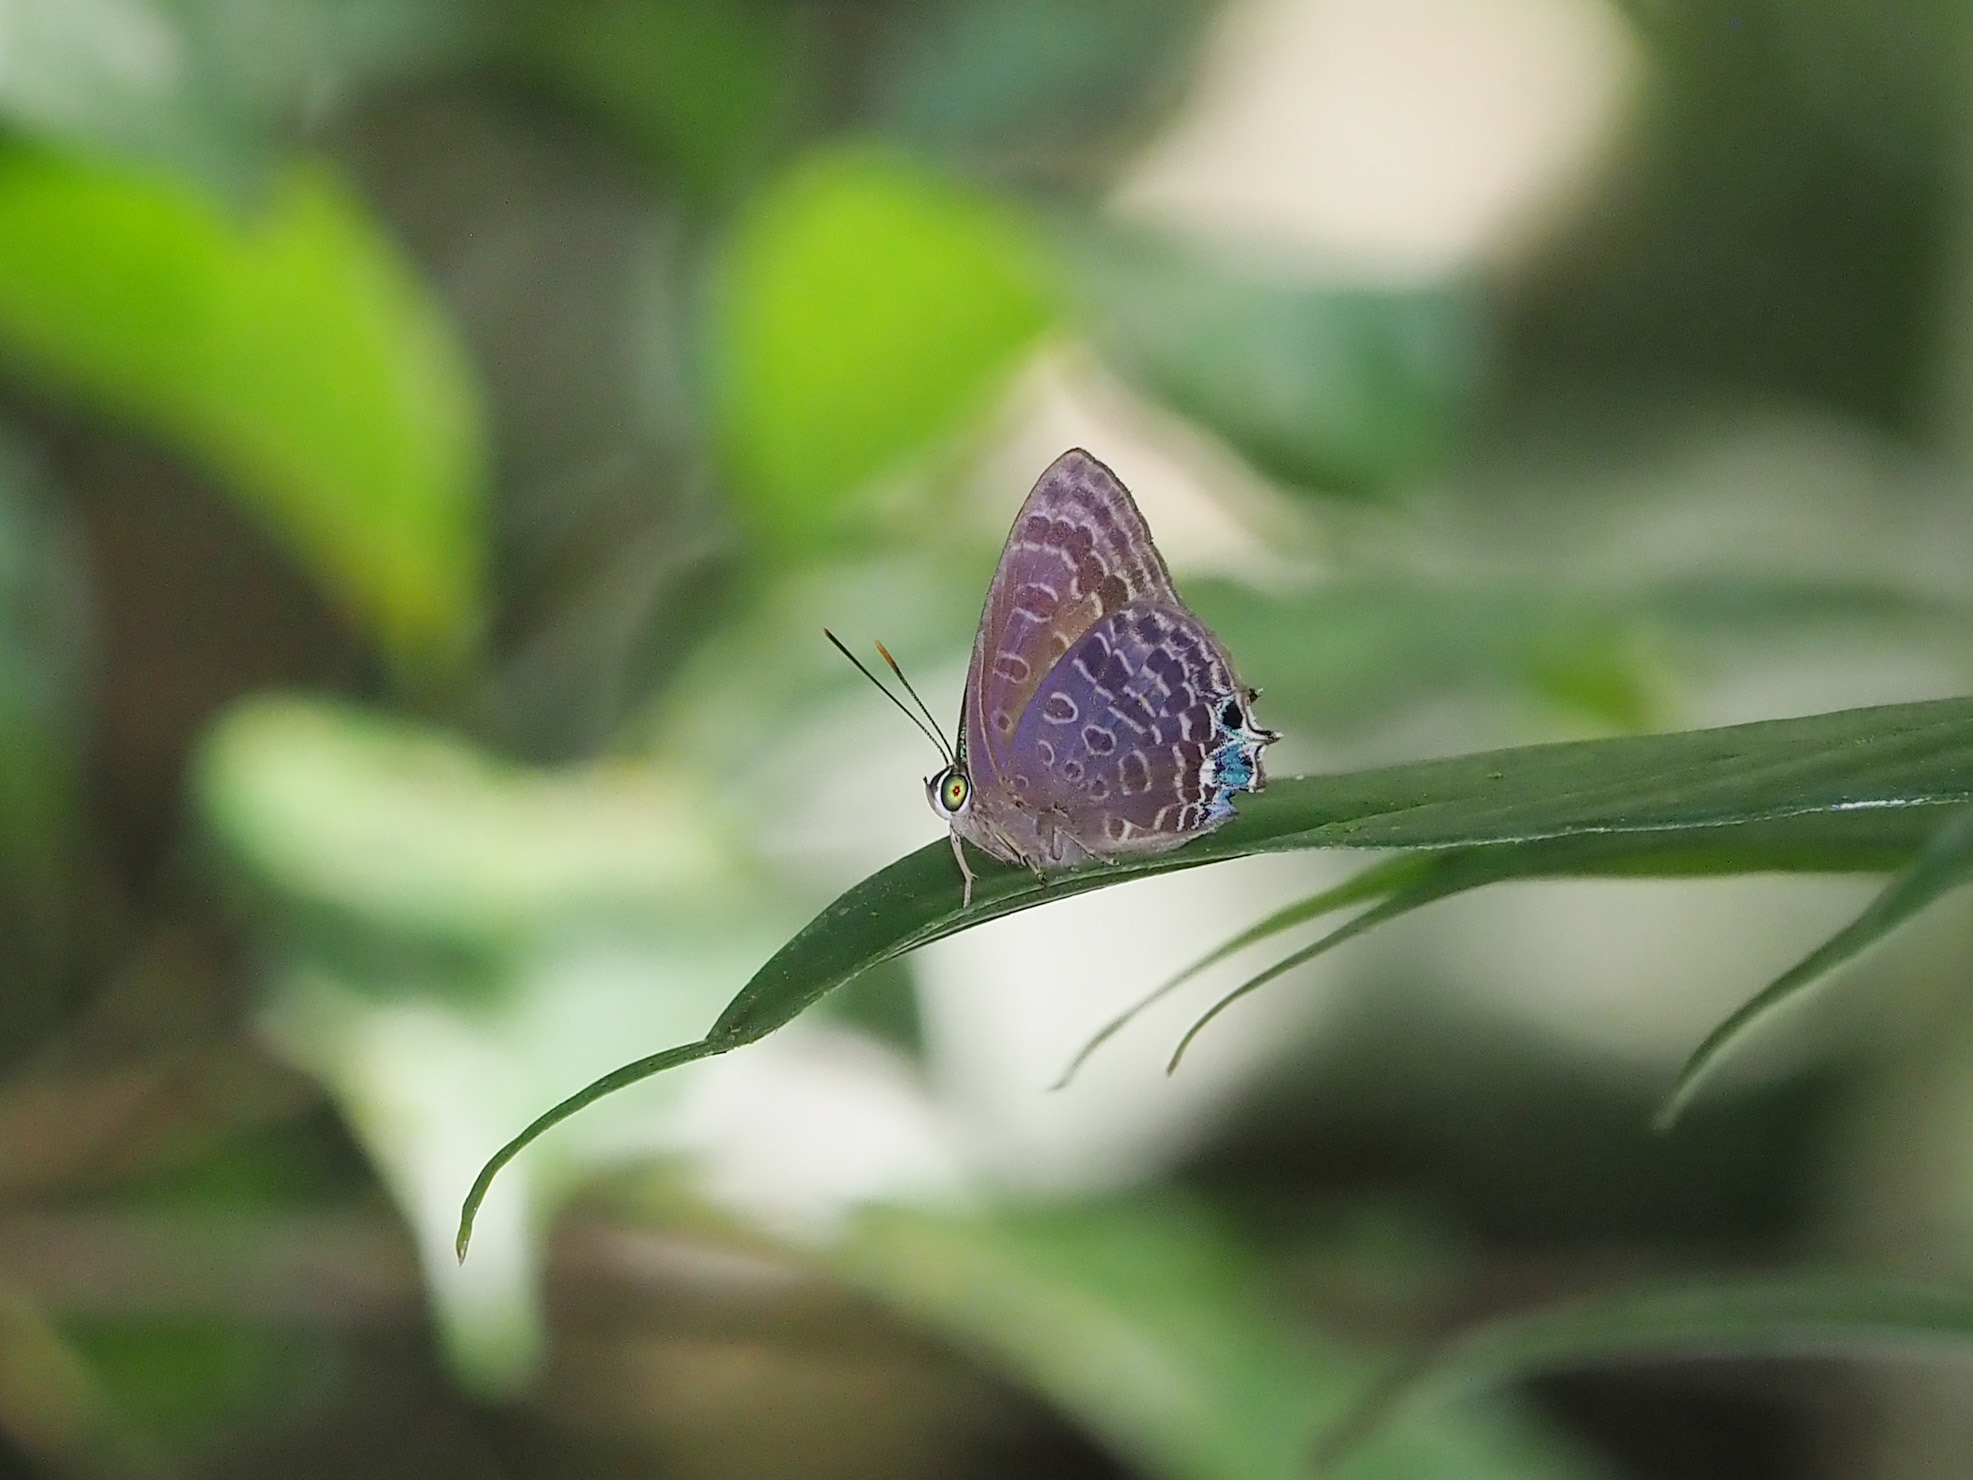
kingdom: Animalia
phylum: Arthropoda
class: Insecta
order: Lepidoptera
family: Lycaenidae
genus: Arhopala
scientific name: Arhopala stinga
